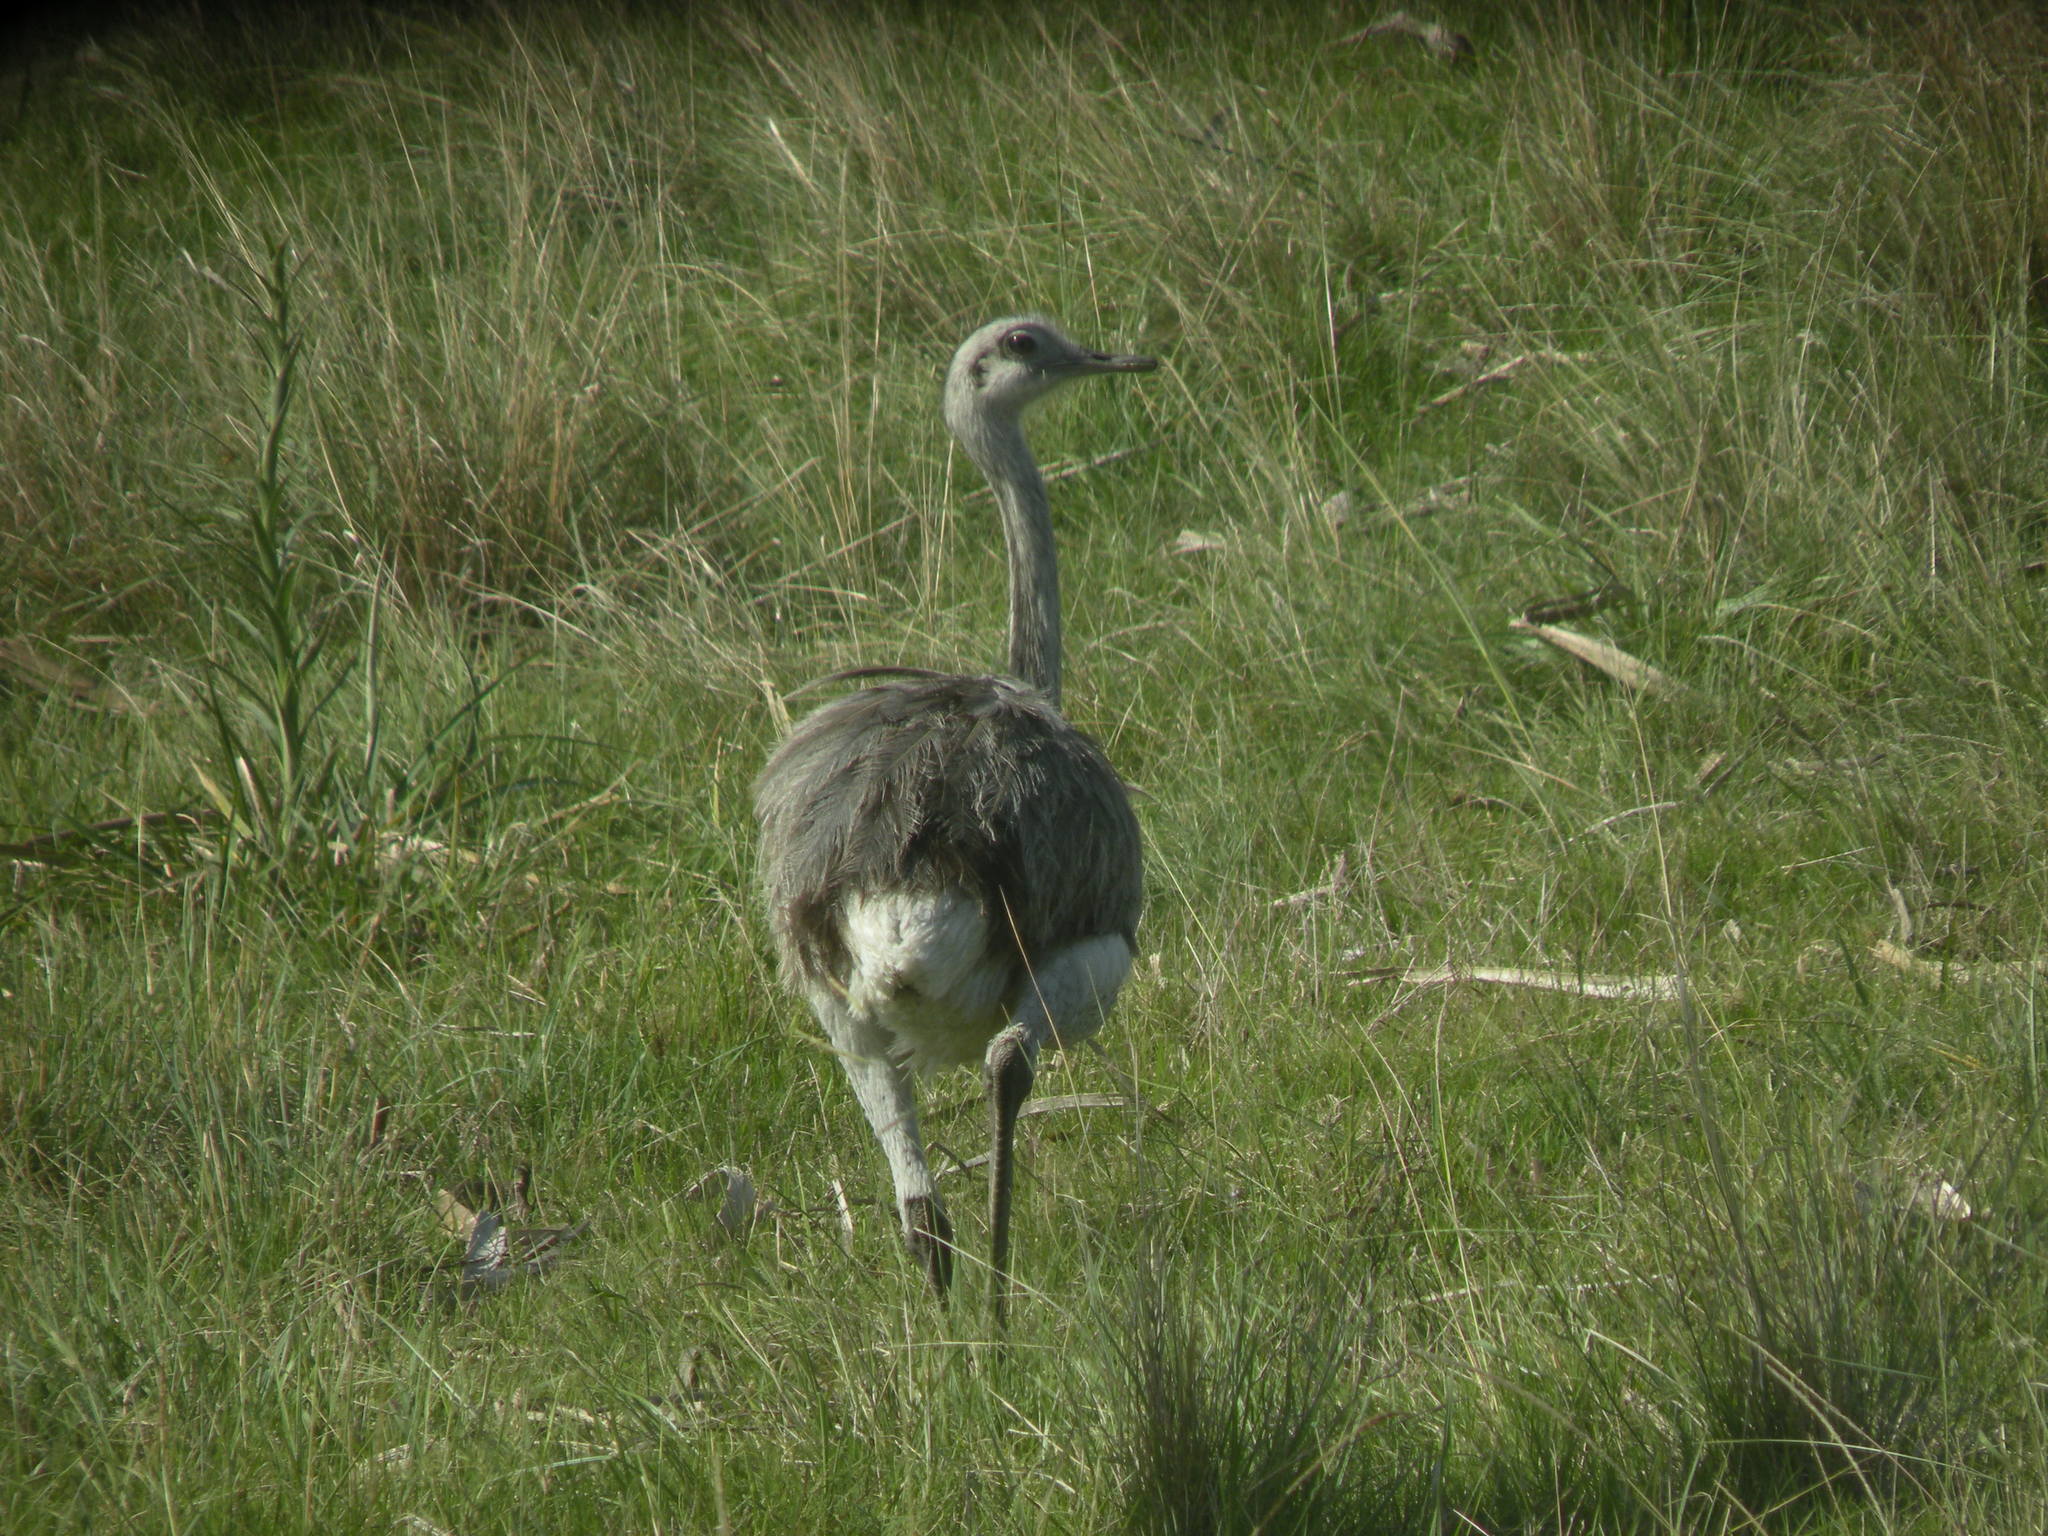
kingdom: Animalia
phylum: Chordata
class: Aves
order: Rheiformes
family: Rheidae
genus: Rhea
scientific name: Rhea americana
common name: Greater rhea
